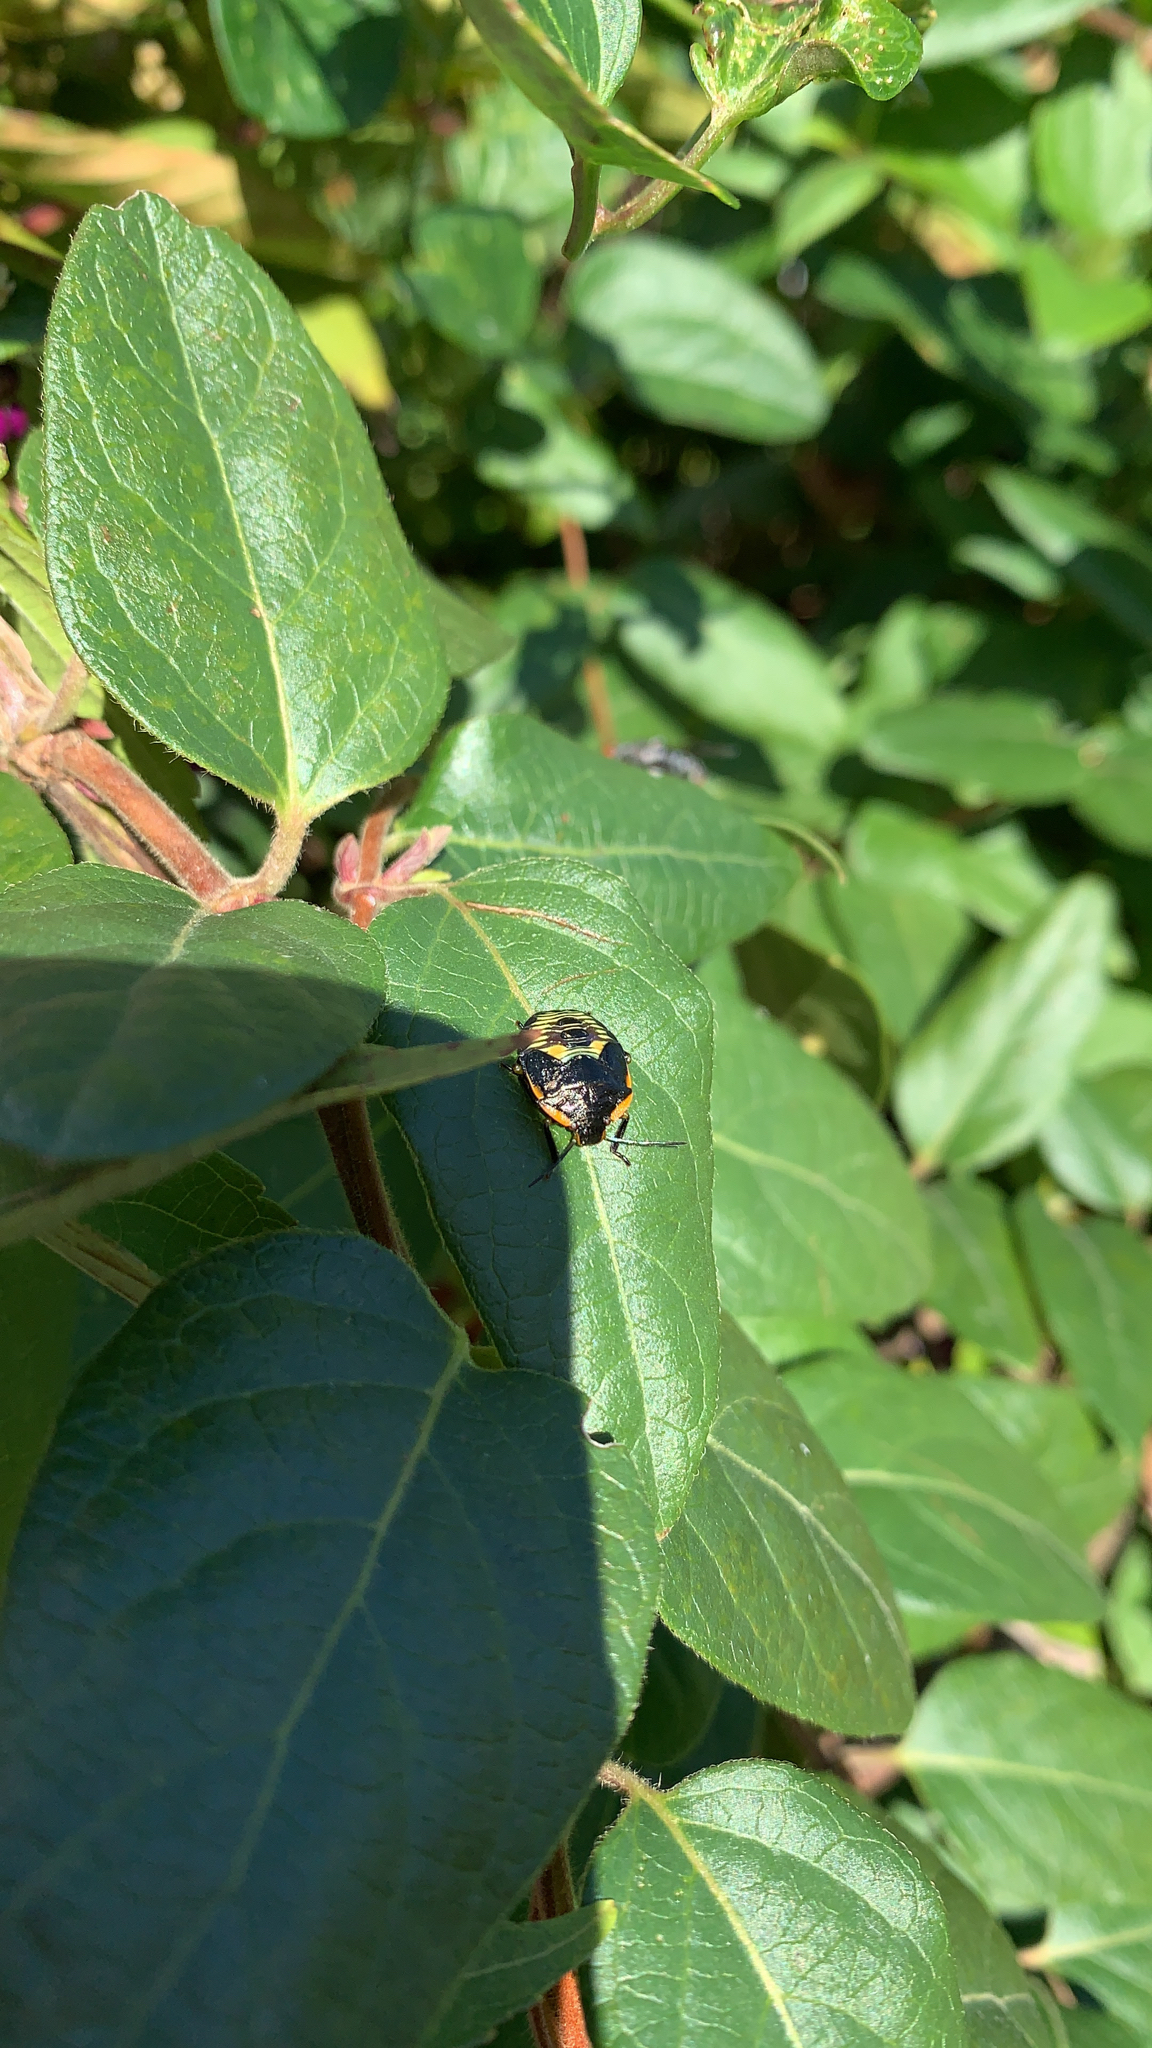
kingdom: Animalia
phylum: Arthropoda
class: Insecta
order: Hemiptera
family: Pentatomidae
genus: Chinavia
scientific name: Chinavia hilaris
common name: Green stink bug
